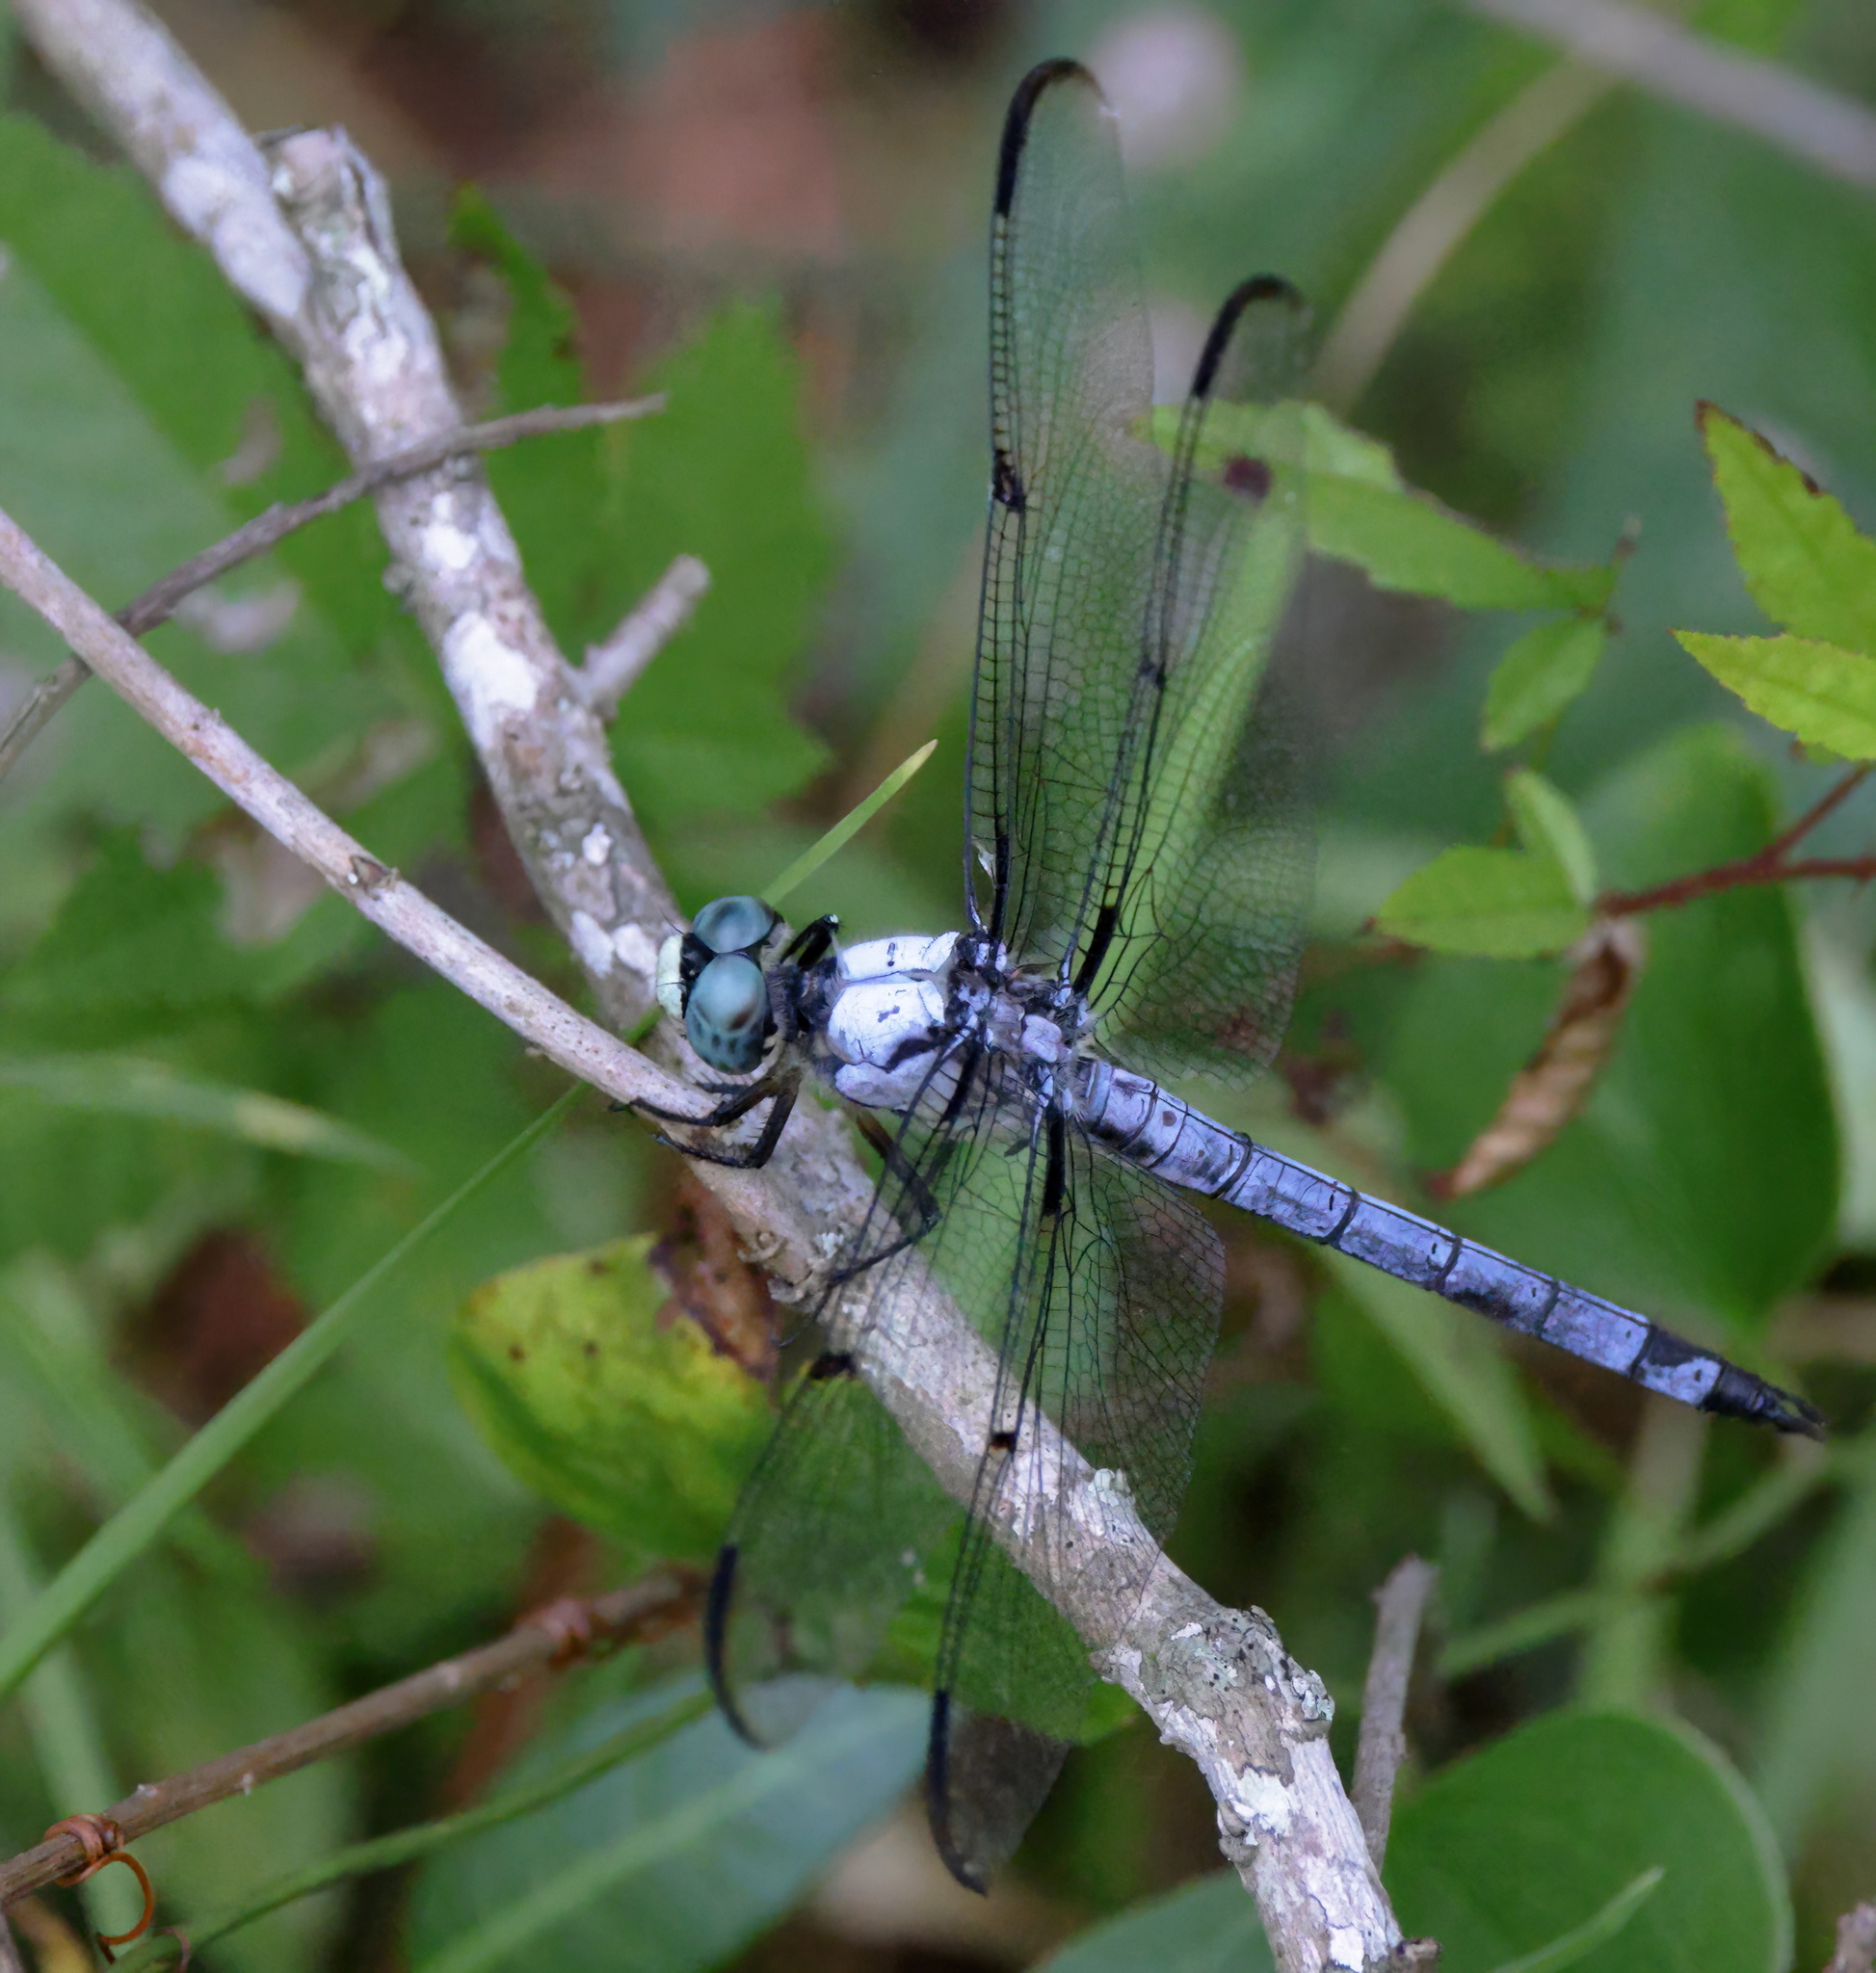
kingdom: Animalia
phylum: Arthropoda
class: Insecta
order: Odonata
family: Libellulidae
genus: Libellula
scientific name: Libellula vibrans
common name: Great blue skimmer
